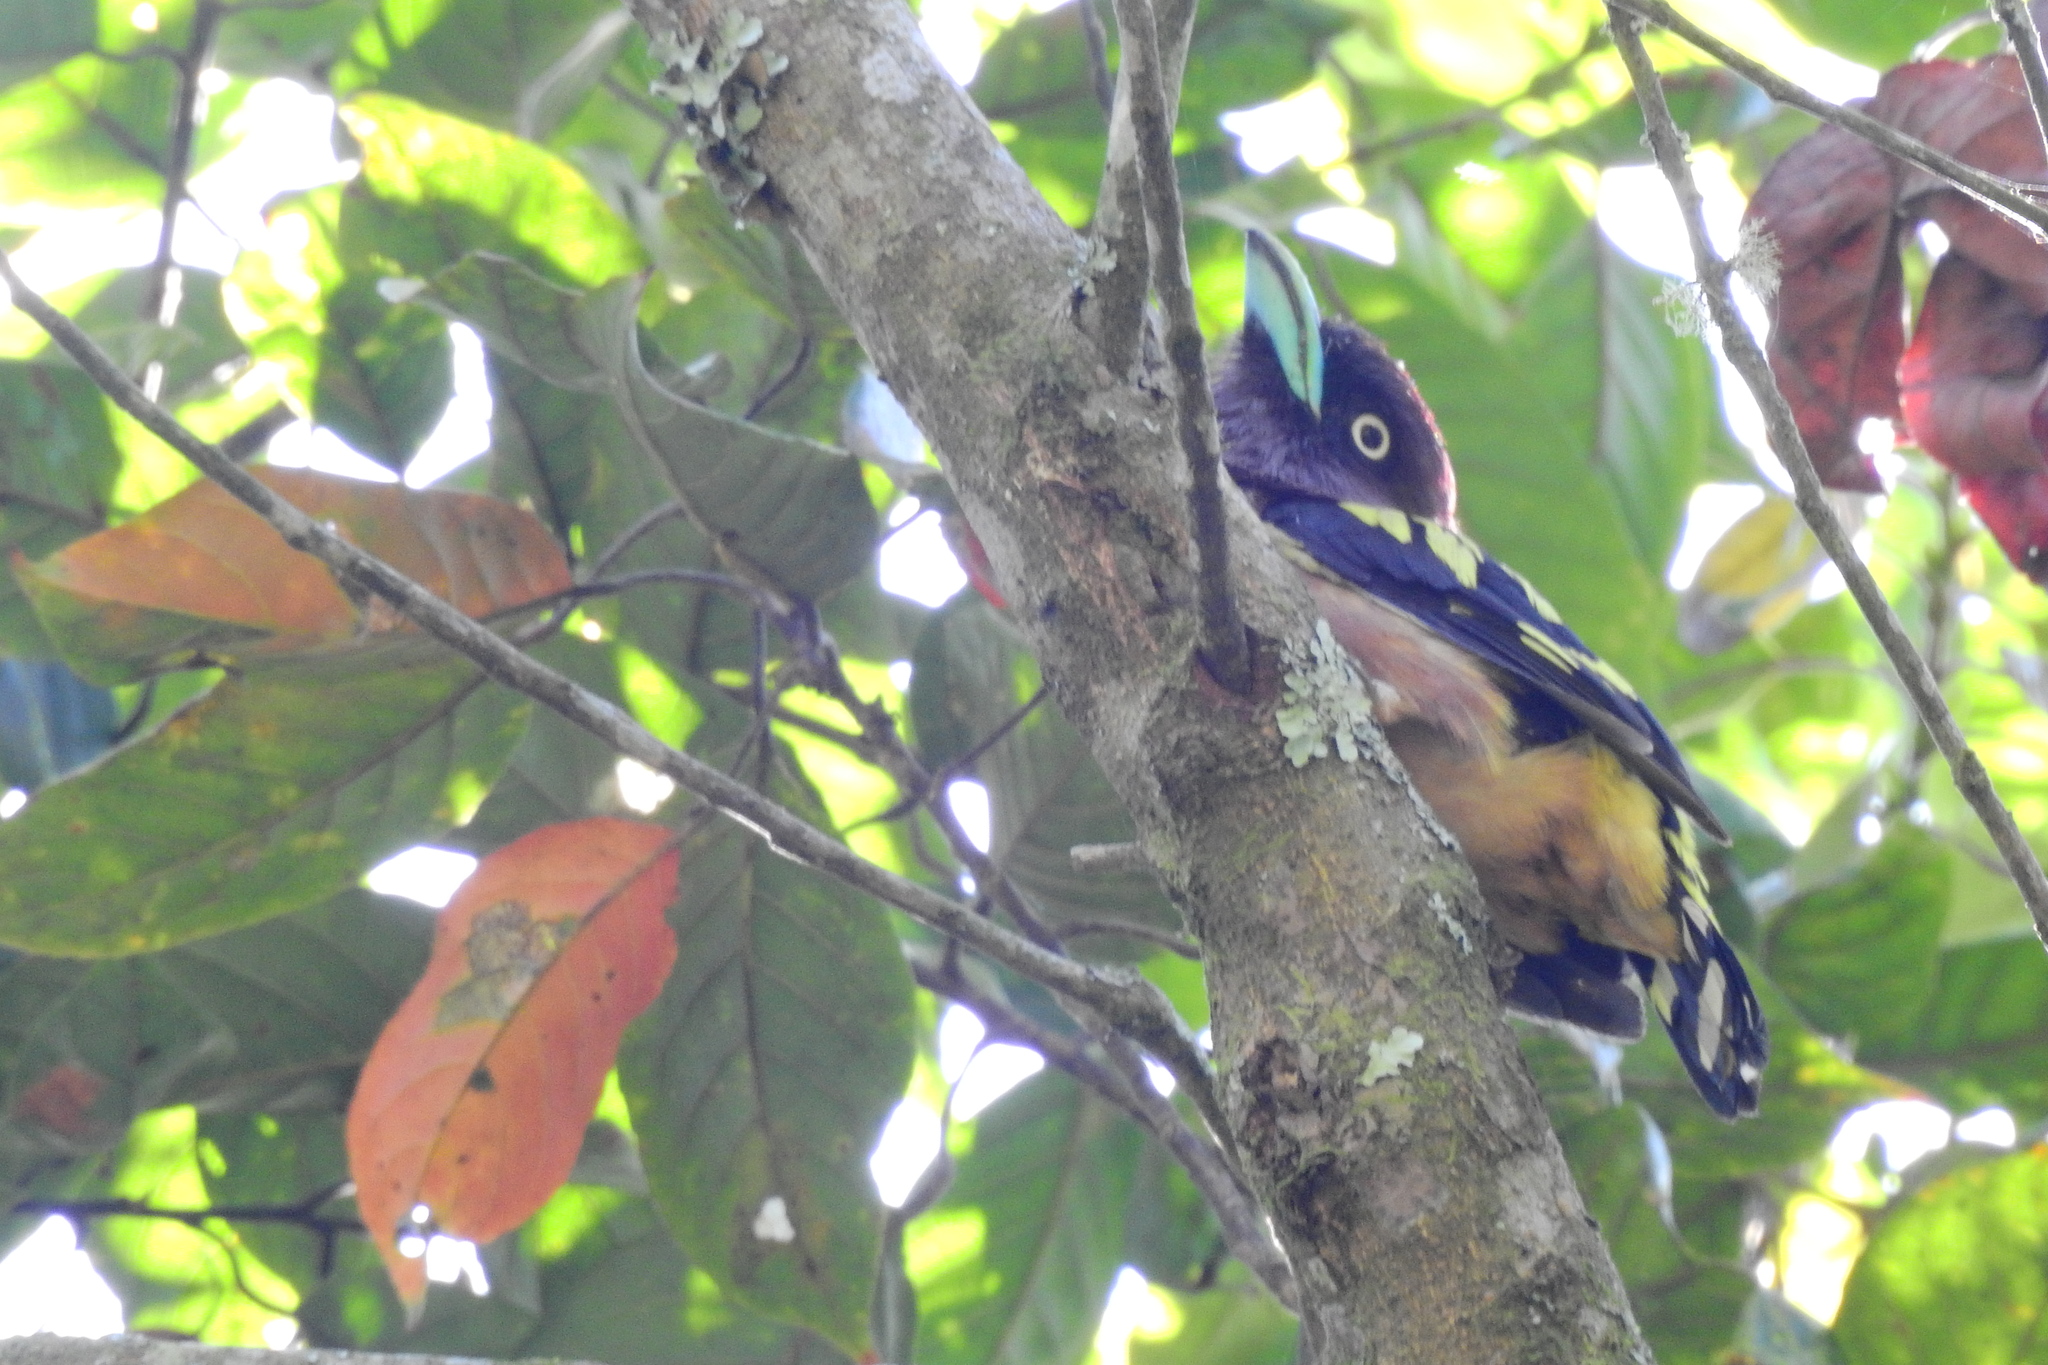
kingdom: Animalia
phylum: Chordata
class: Aves
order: Passeriformes
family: Eurylaimidae
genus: Eurylaimus
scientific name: Eurylaimus javanicus
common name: Banded broadbill
